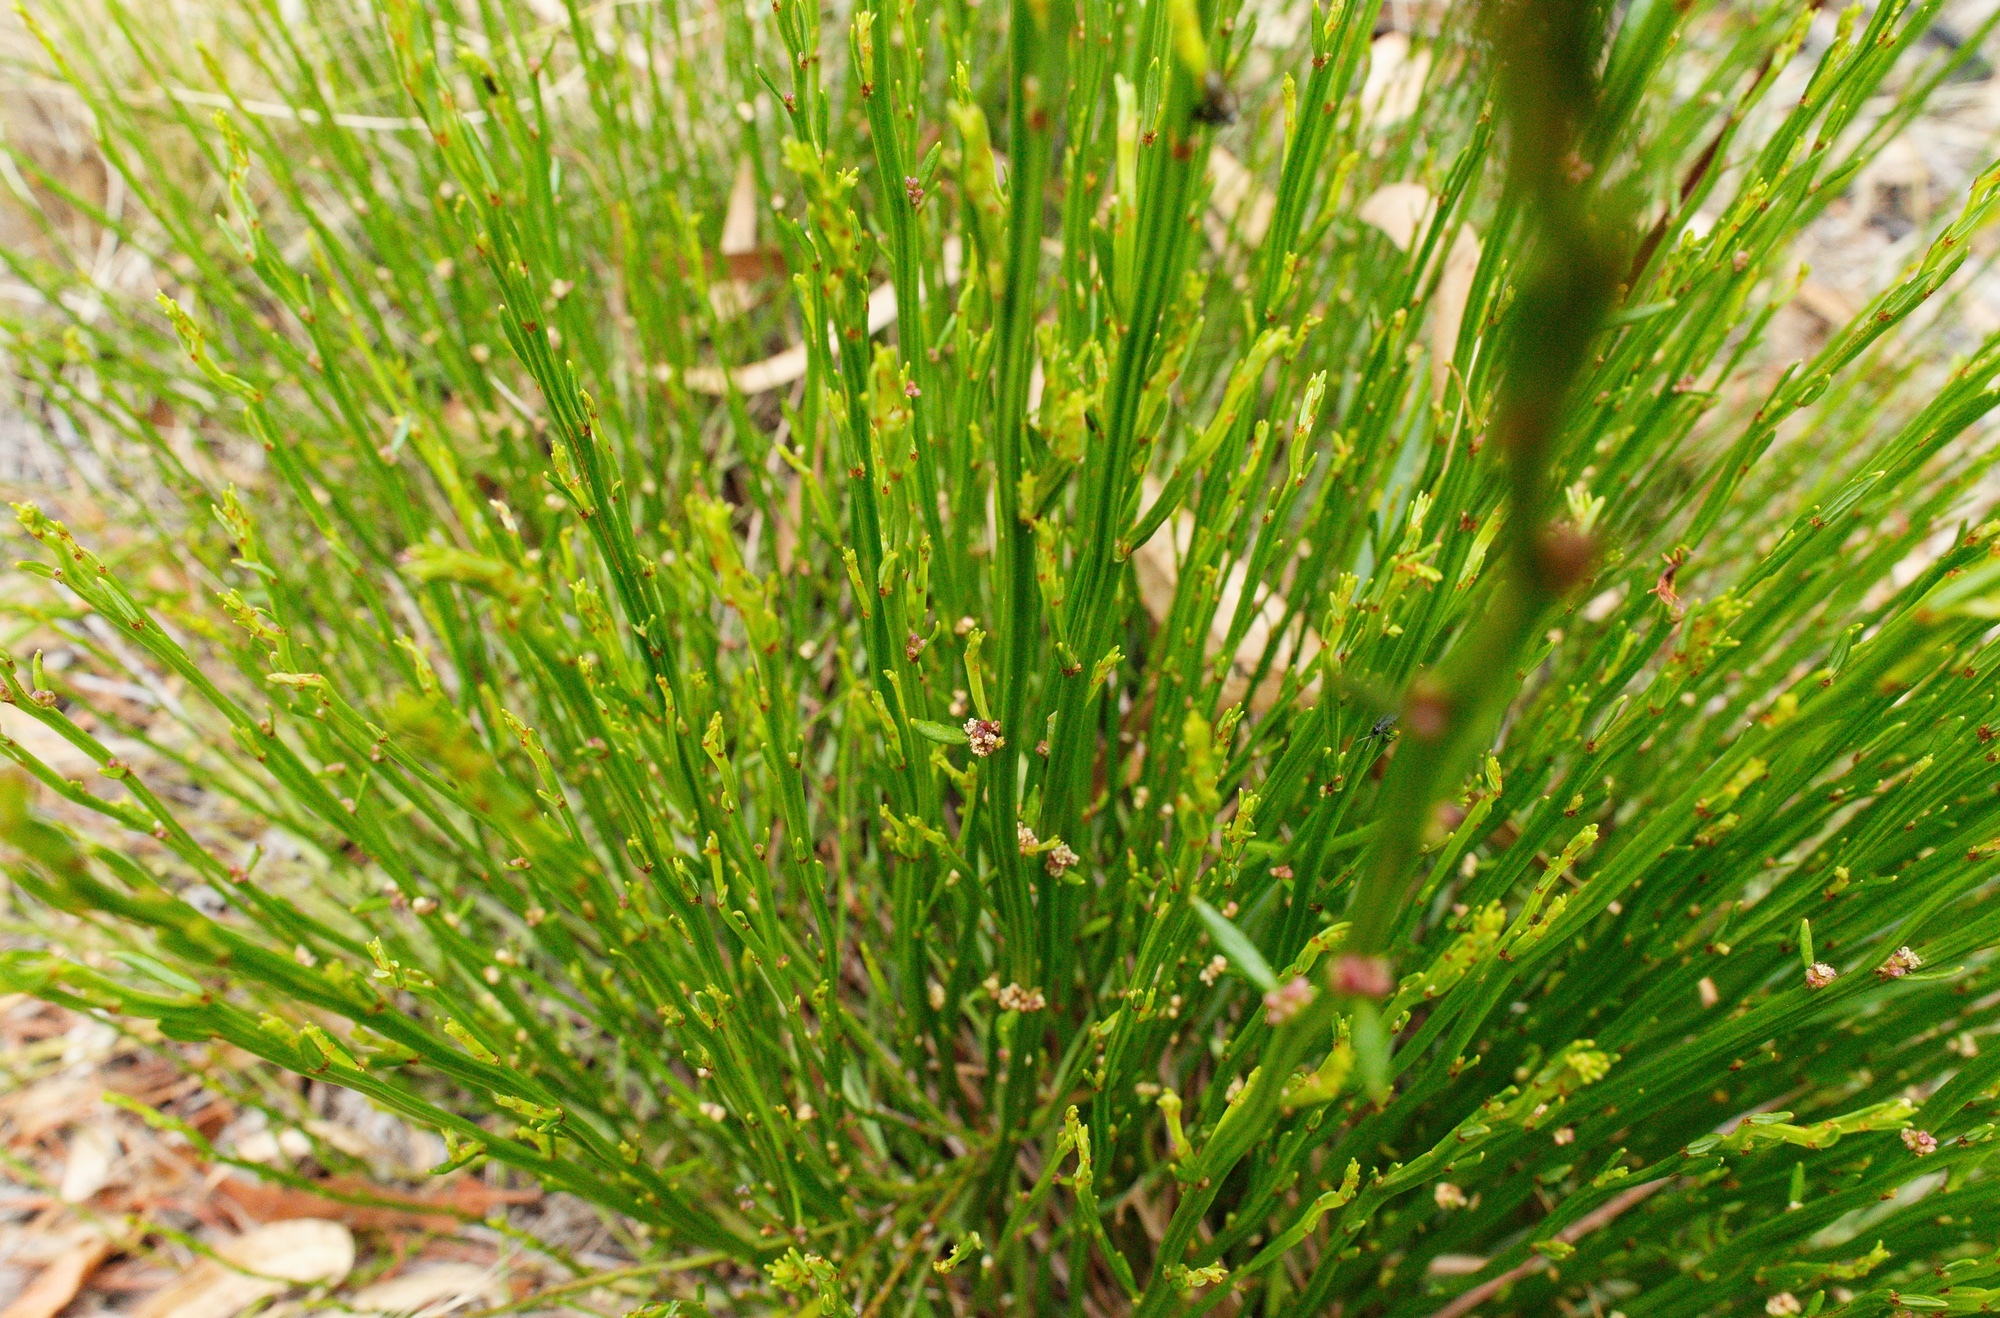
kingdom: Plantae
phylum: Tracheophyta
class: Magnoliopsida
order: Malpighiales
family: Euphorbiaceae
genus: Amperea
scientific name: Amperea xiphoclada
